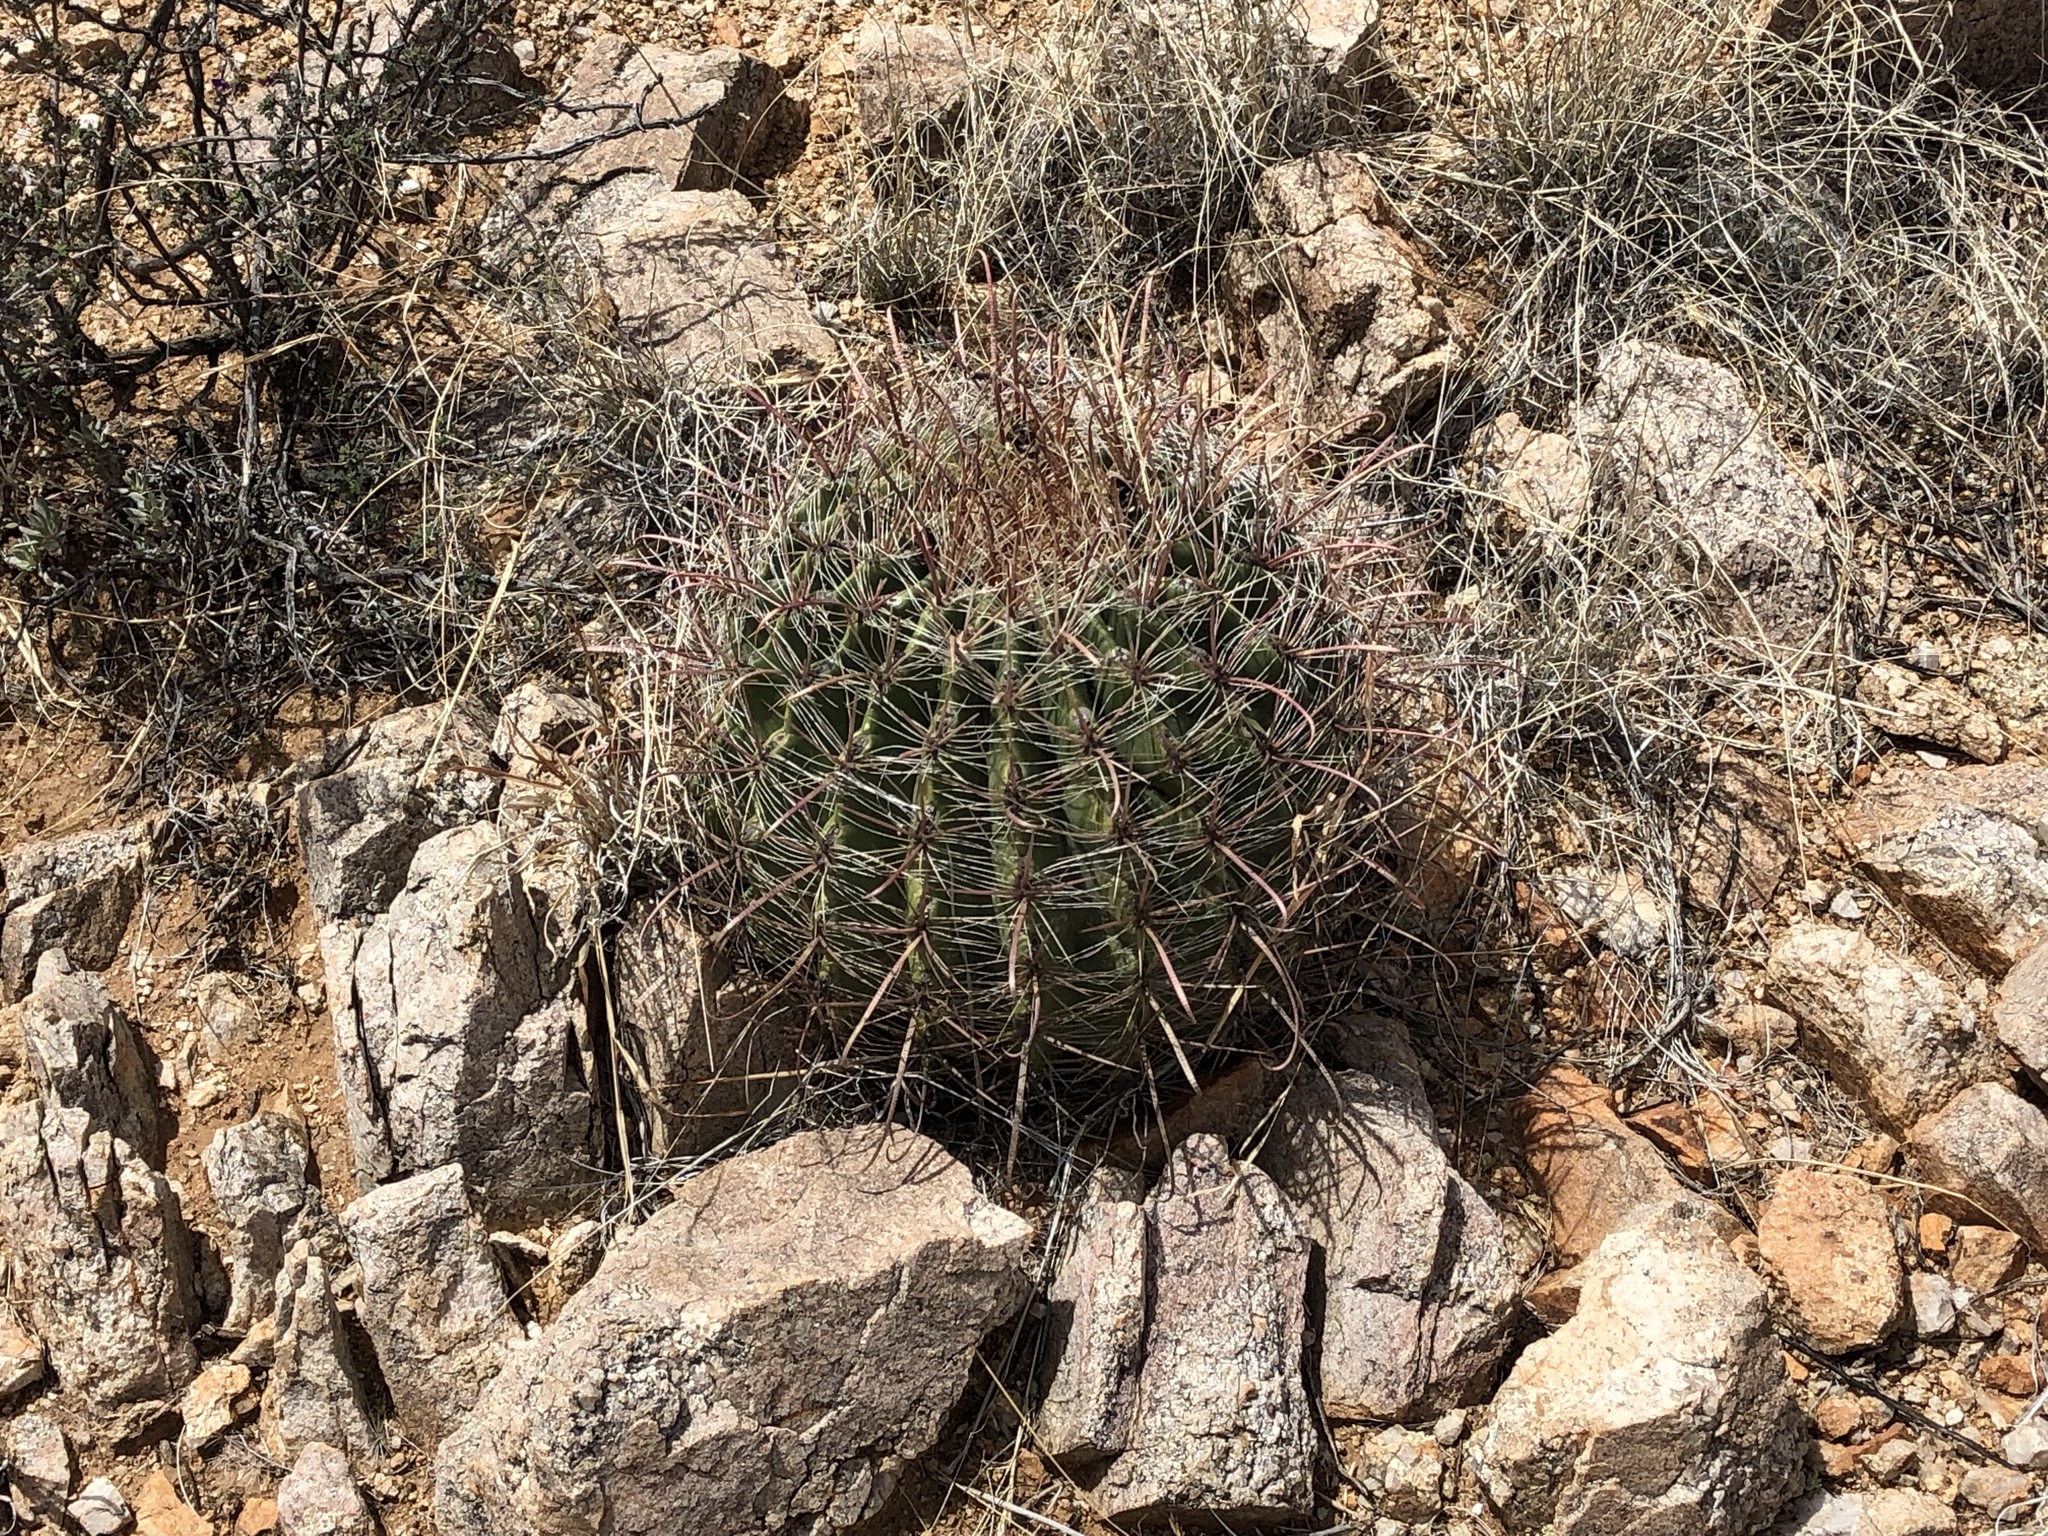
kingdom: Plantae
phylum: Tracheophyta
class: Magnoliopsida
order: Caryophyllales
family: Cactaceae
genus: Ferocactus
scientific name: Ferocactus wislizeni
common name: Candy barrel cactus
